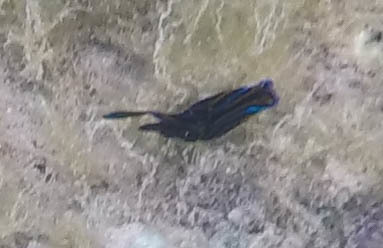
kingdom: Animalia
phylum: Mollusca
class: Gastropoda
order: Cephalaspidea
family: Aglajidae
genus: Chelidonura
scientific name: Chelidonura hirundinina
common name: Leech headshield slug
